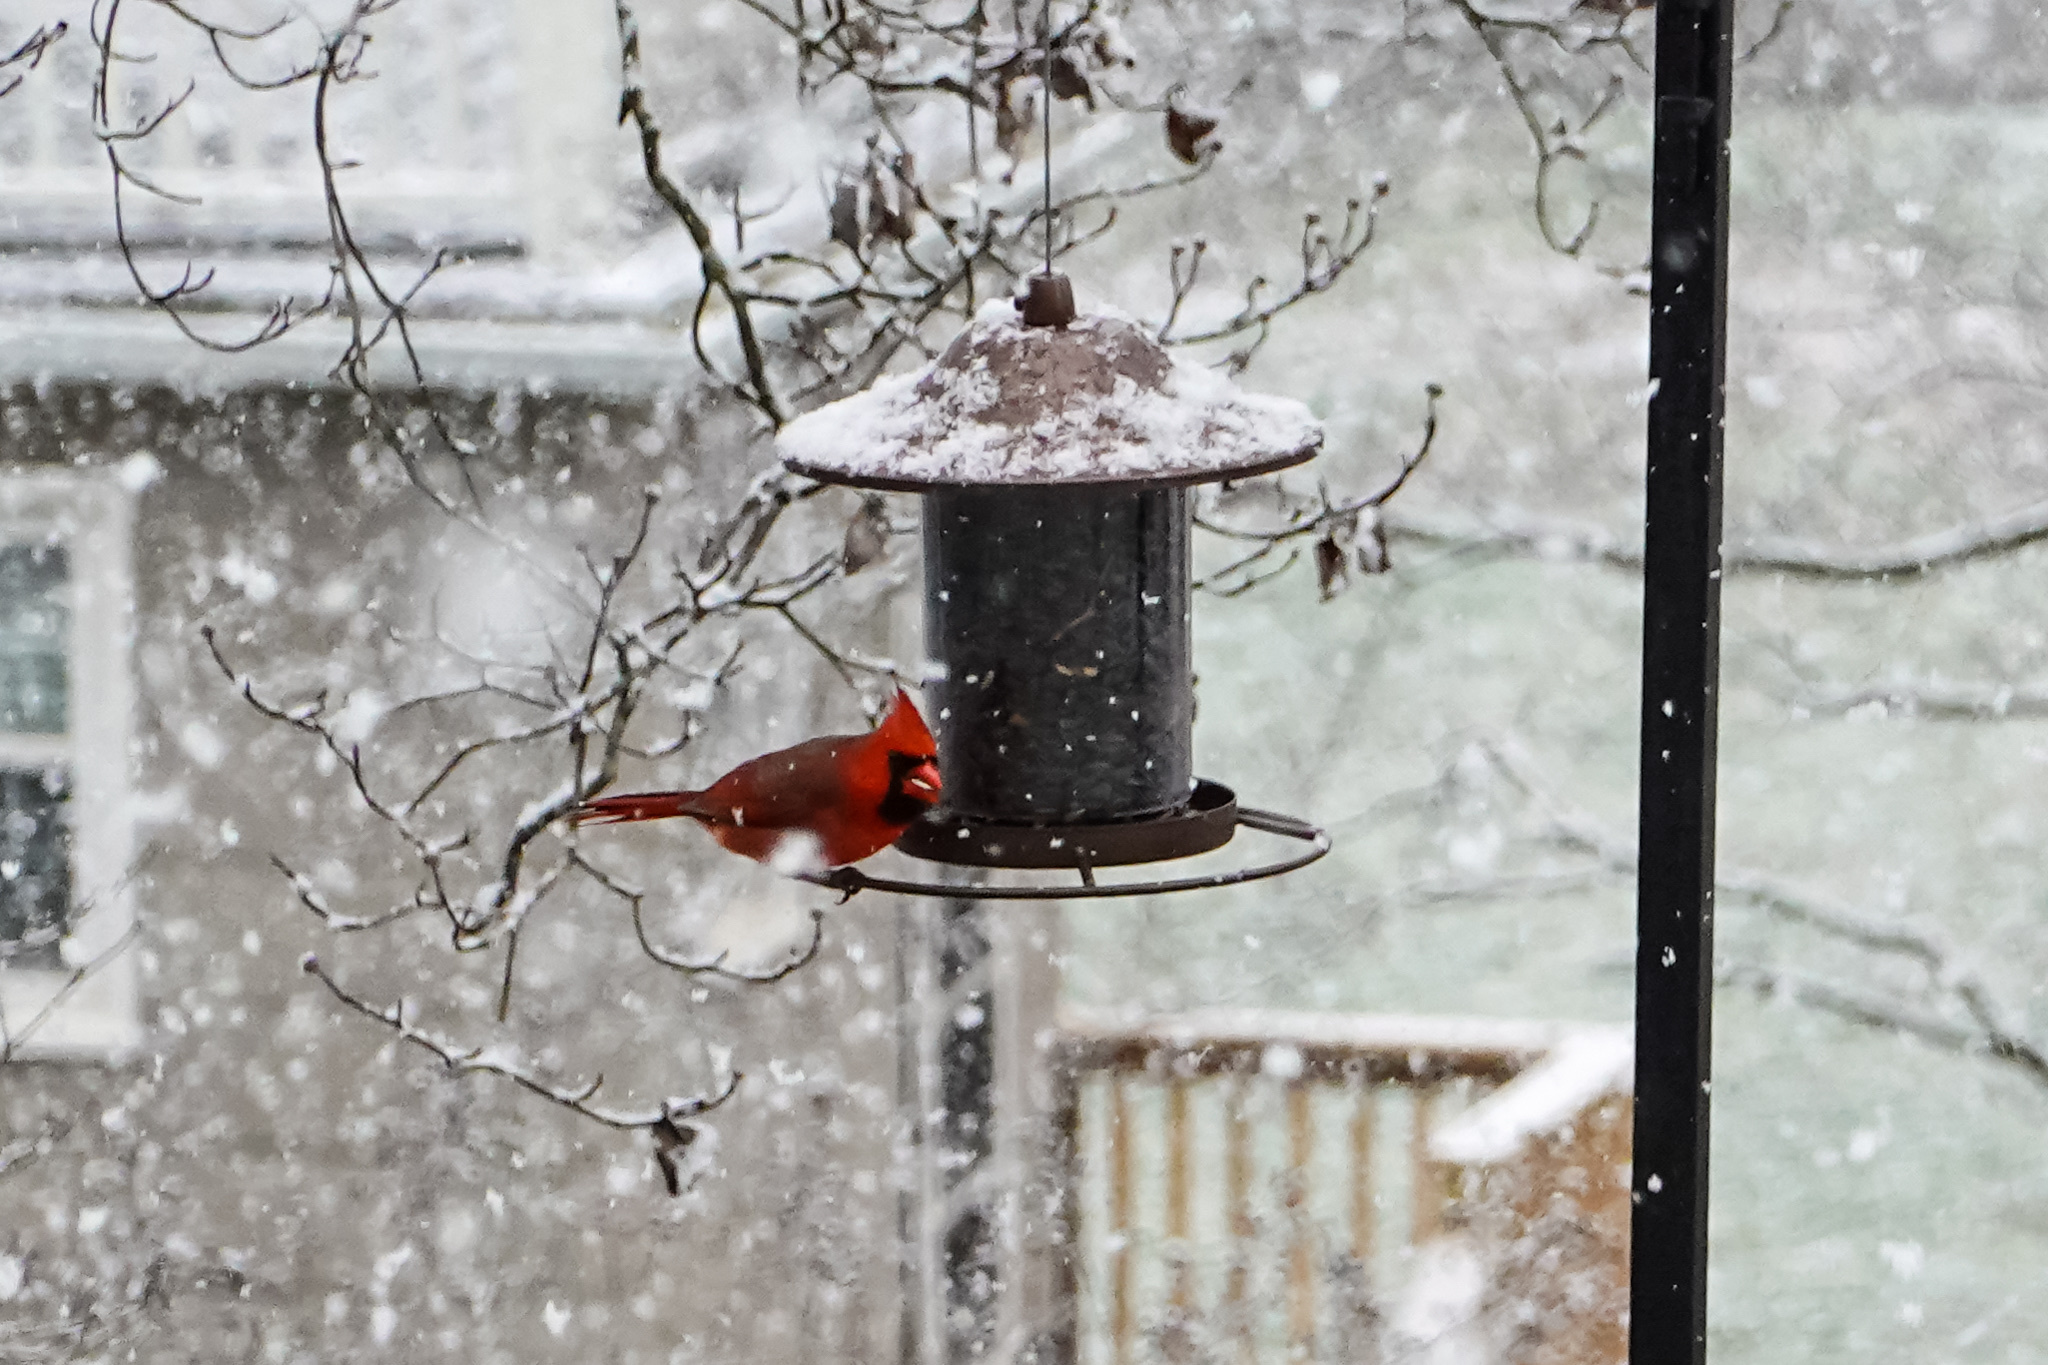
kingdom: Animalia
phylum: Chordata
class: Aves
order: Passeriformes
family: Cardinalidae
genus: Cardinalis
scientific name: Cardinalis cardinalis
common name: Northern cardinal
